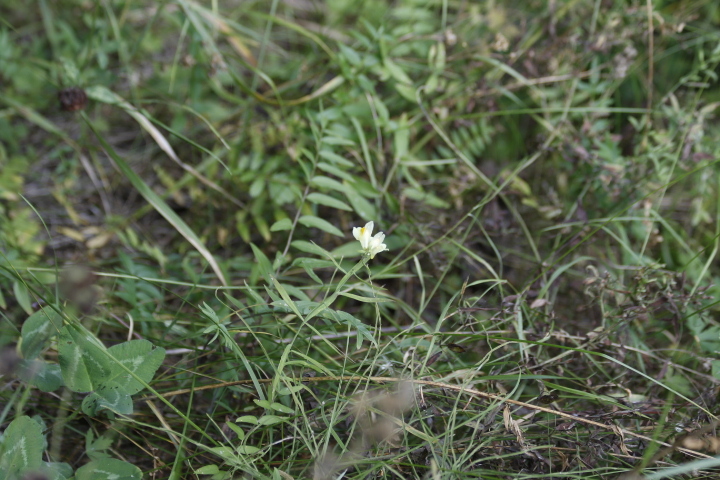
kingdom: Plantae
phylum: Tracheophyta
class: Magnoliopsida
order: Lamiales
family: Plantaginaceae
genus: Linaria
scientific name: Linaria vulgaris
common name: Butter and eggs
